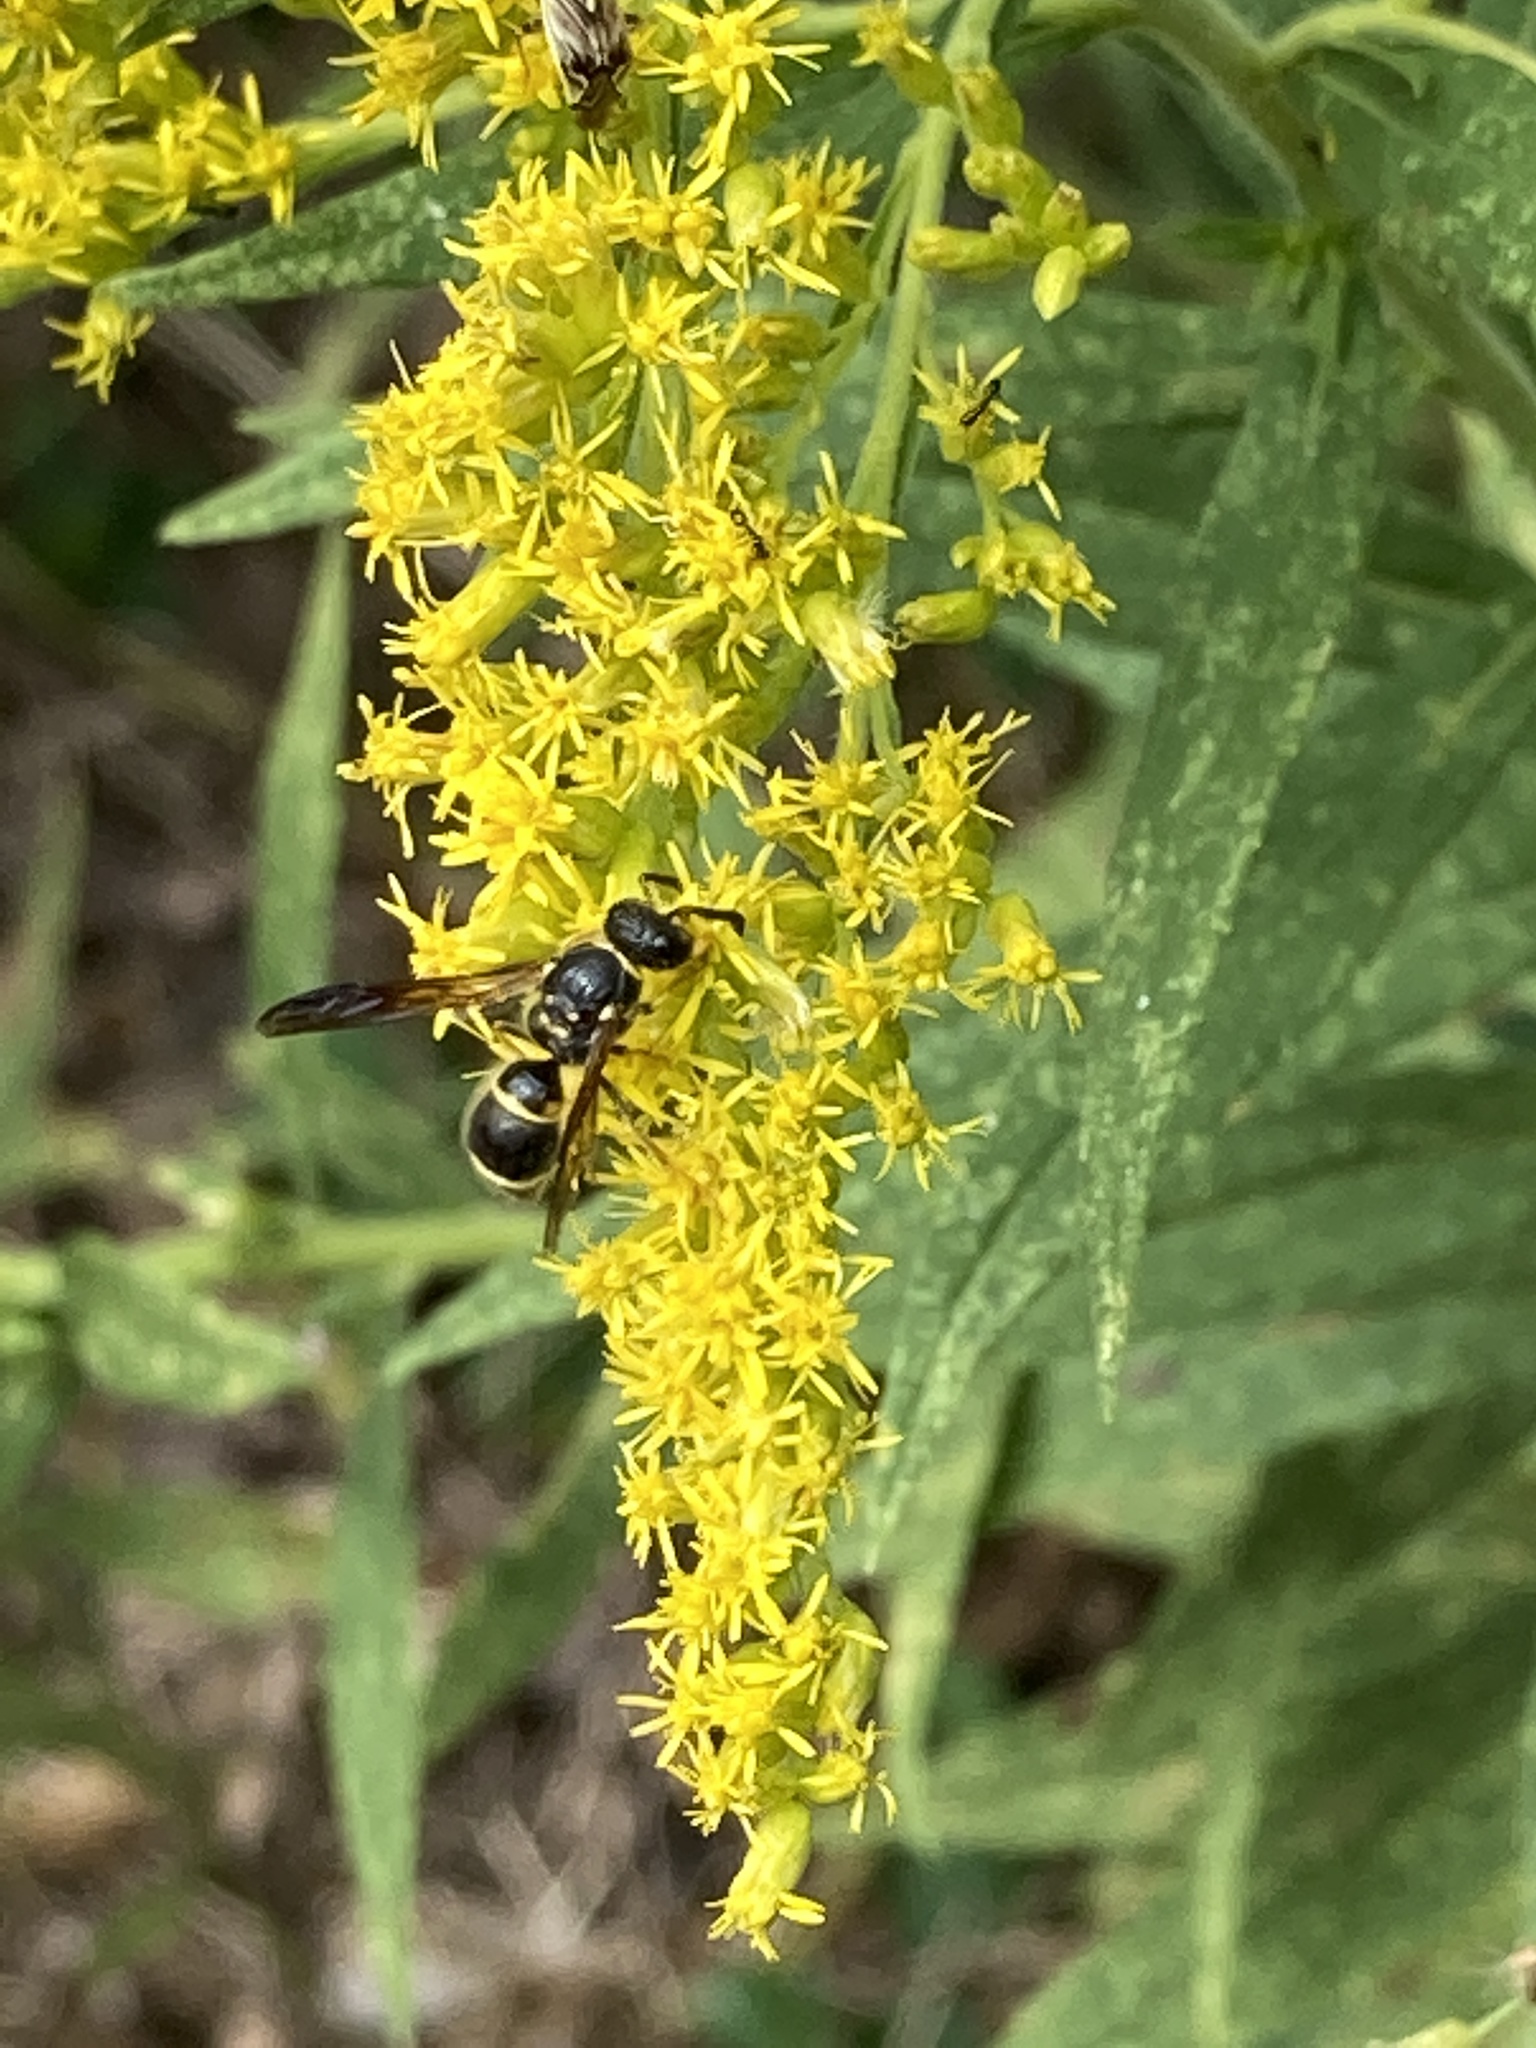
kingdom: Animalia
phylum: Arthropoda
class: Insecta
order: Hymenoptera
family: Vespidae
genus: Ancistrocerus
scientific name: Ancistrocerus campestris
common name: Smiling mason wasp
